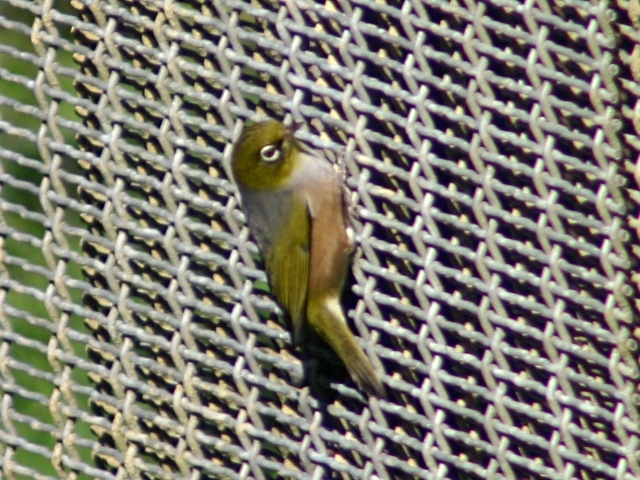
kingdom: Animalia
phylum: Chordata
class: Aves
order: Passeriformes
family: Zosteropidae
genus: Zosterops
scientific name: Zosterops lateralis
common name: Silvereye
